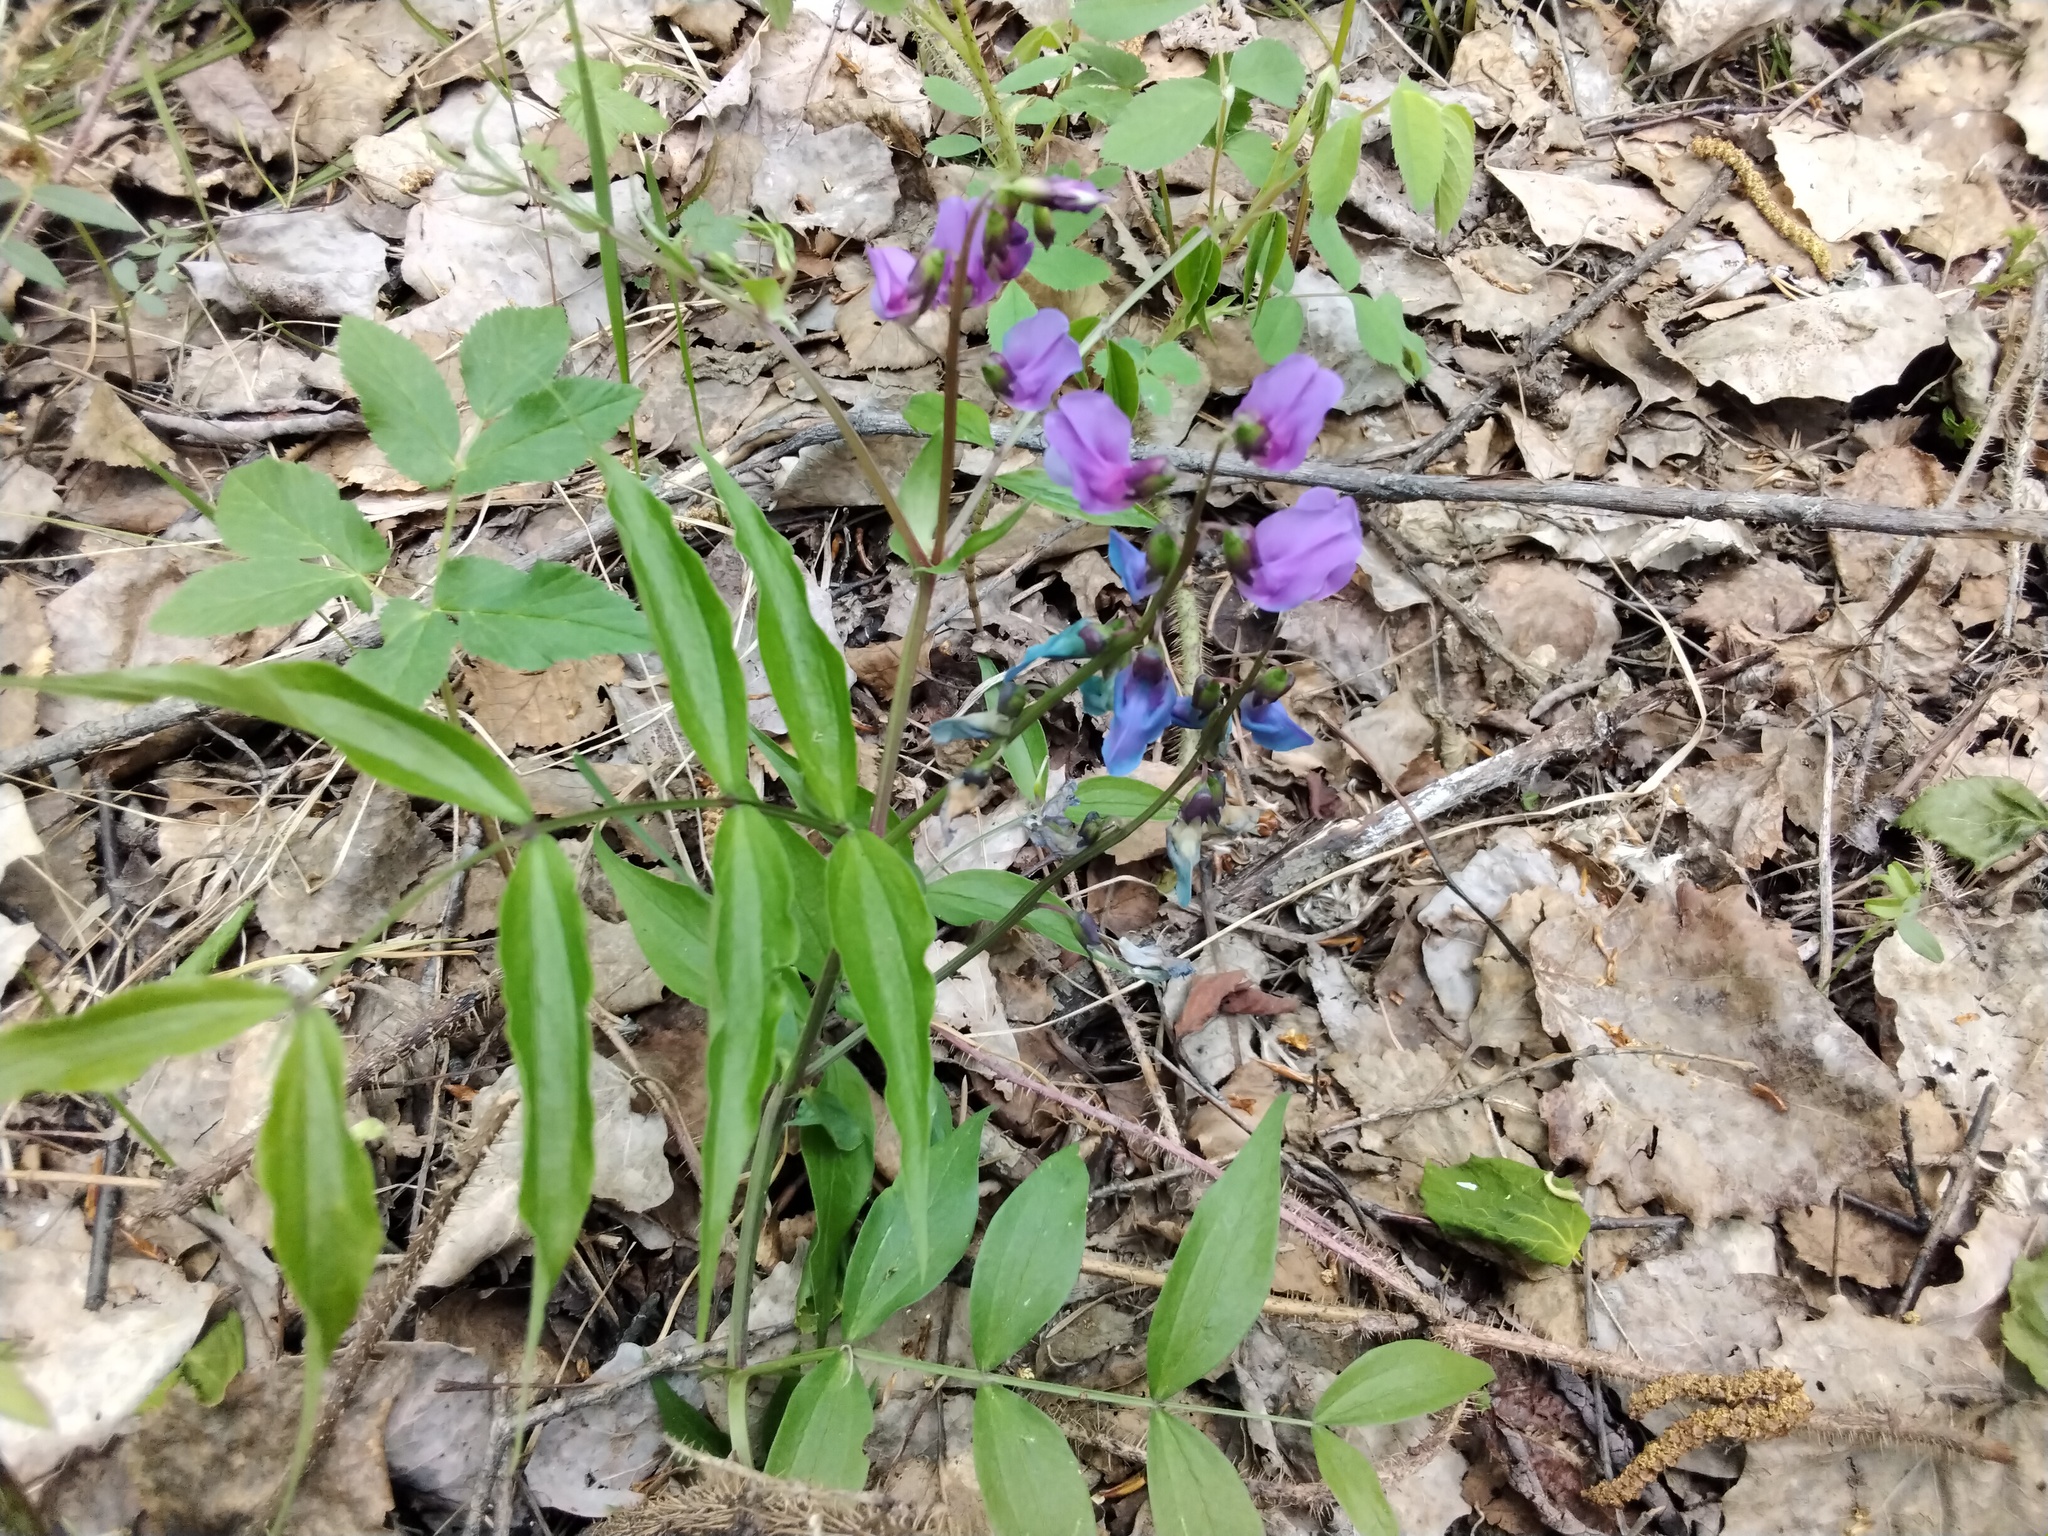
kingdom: Plantae
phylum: Tracheophyta
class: Magnoliopsida
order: Fabales
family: Fabaceae
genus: Lathyrus
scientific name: Lathyrus vernus
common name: Spring pea
